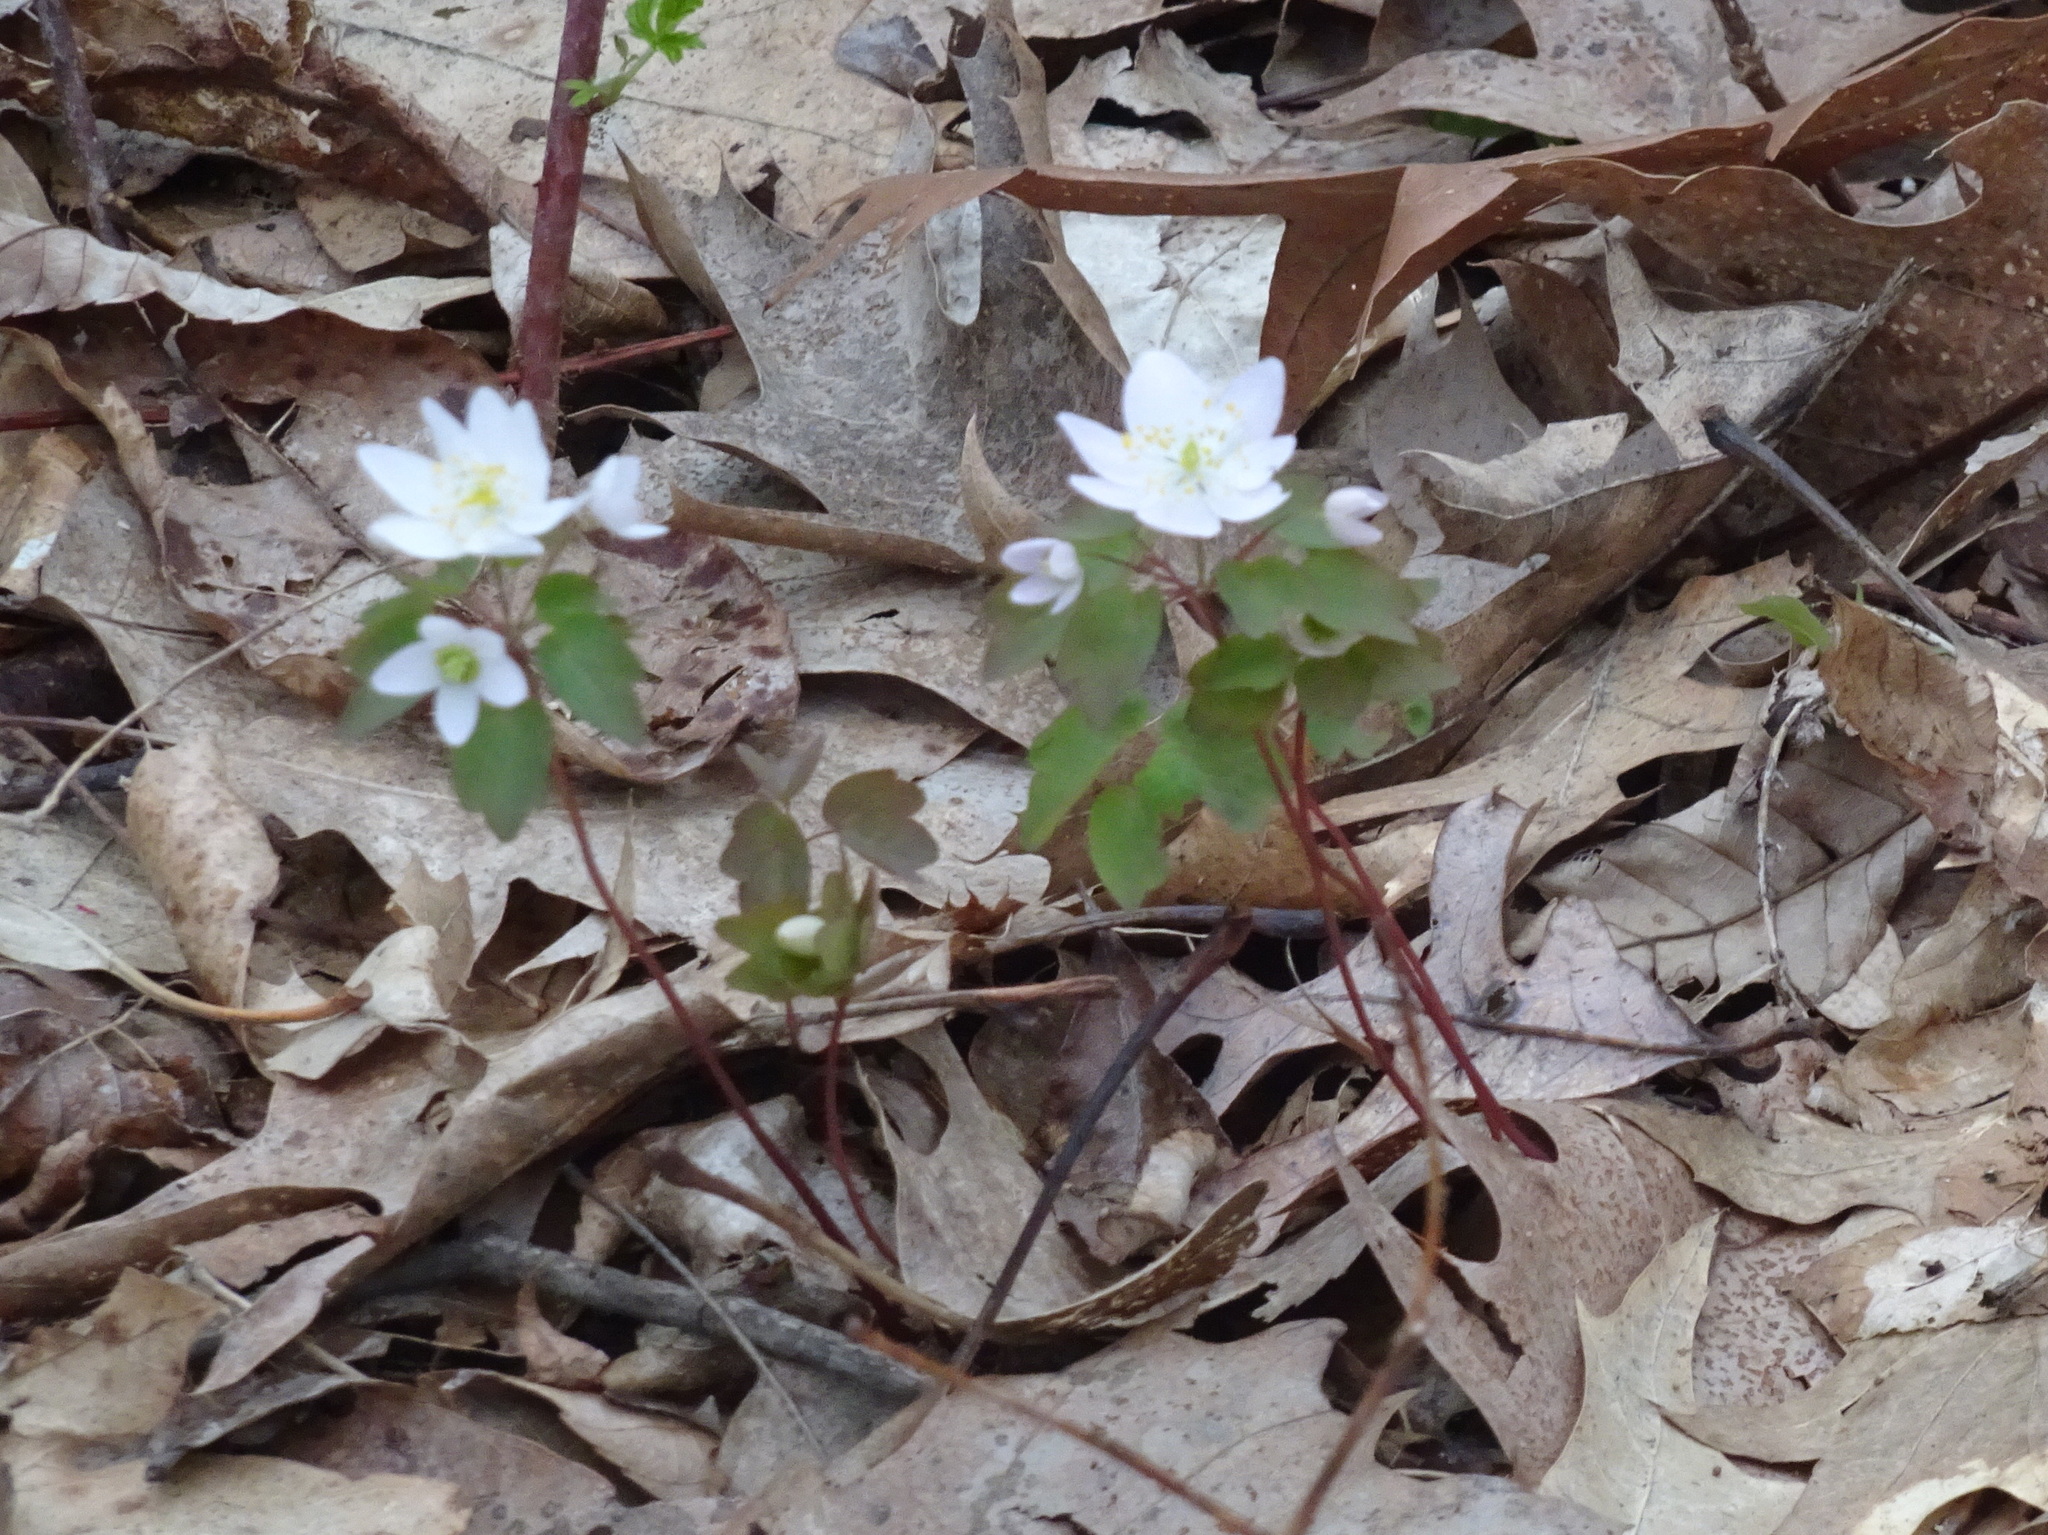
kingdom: Plantae
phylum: Tracheophyta
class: Magnoliopsida
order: Ranunculales
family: Ranunculaceae
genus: Thalictrum
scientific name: Thalictrum thalictroides
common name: Rue-anemone
